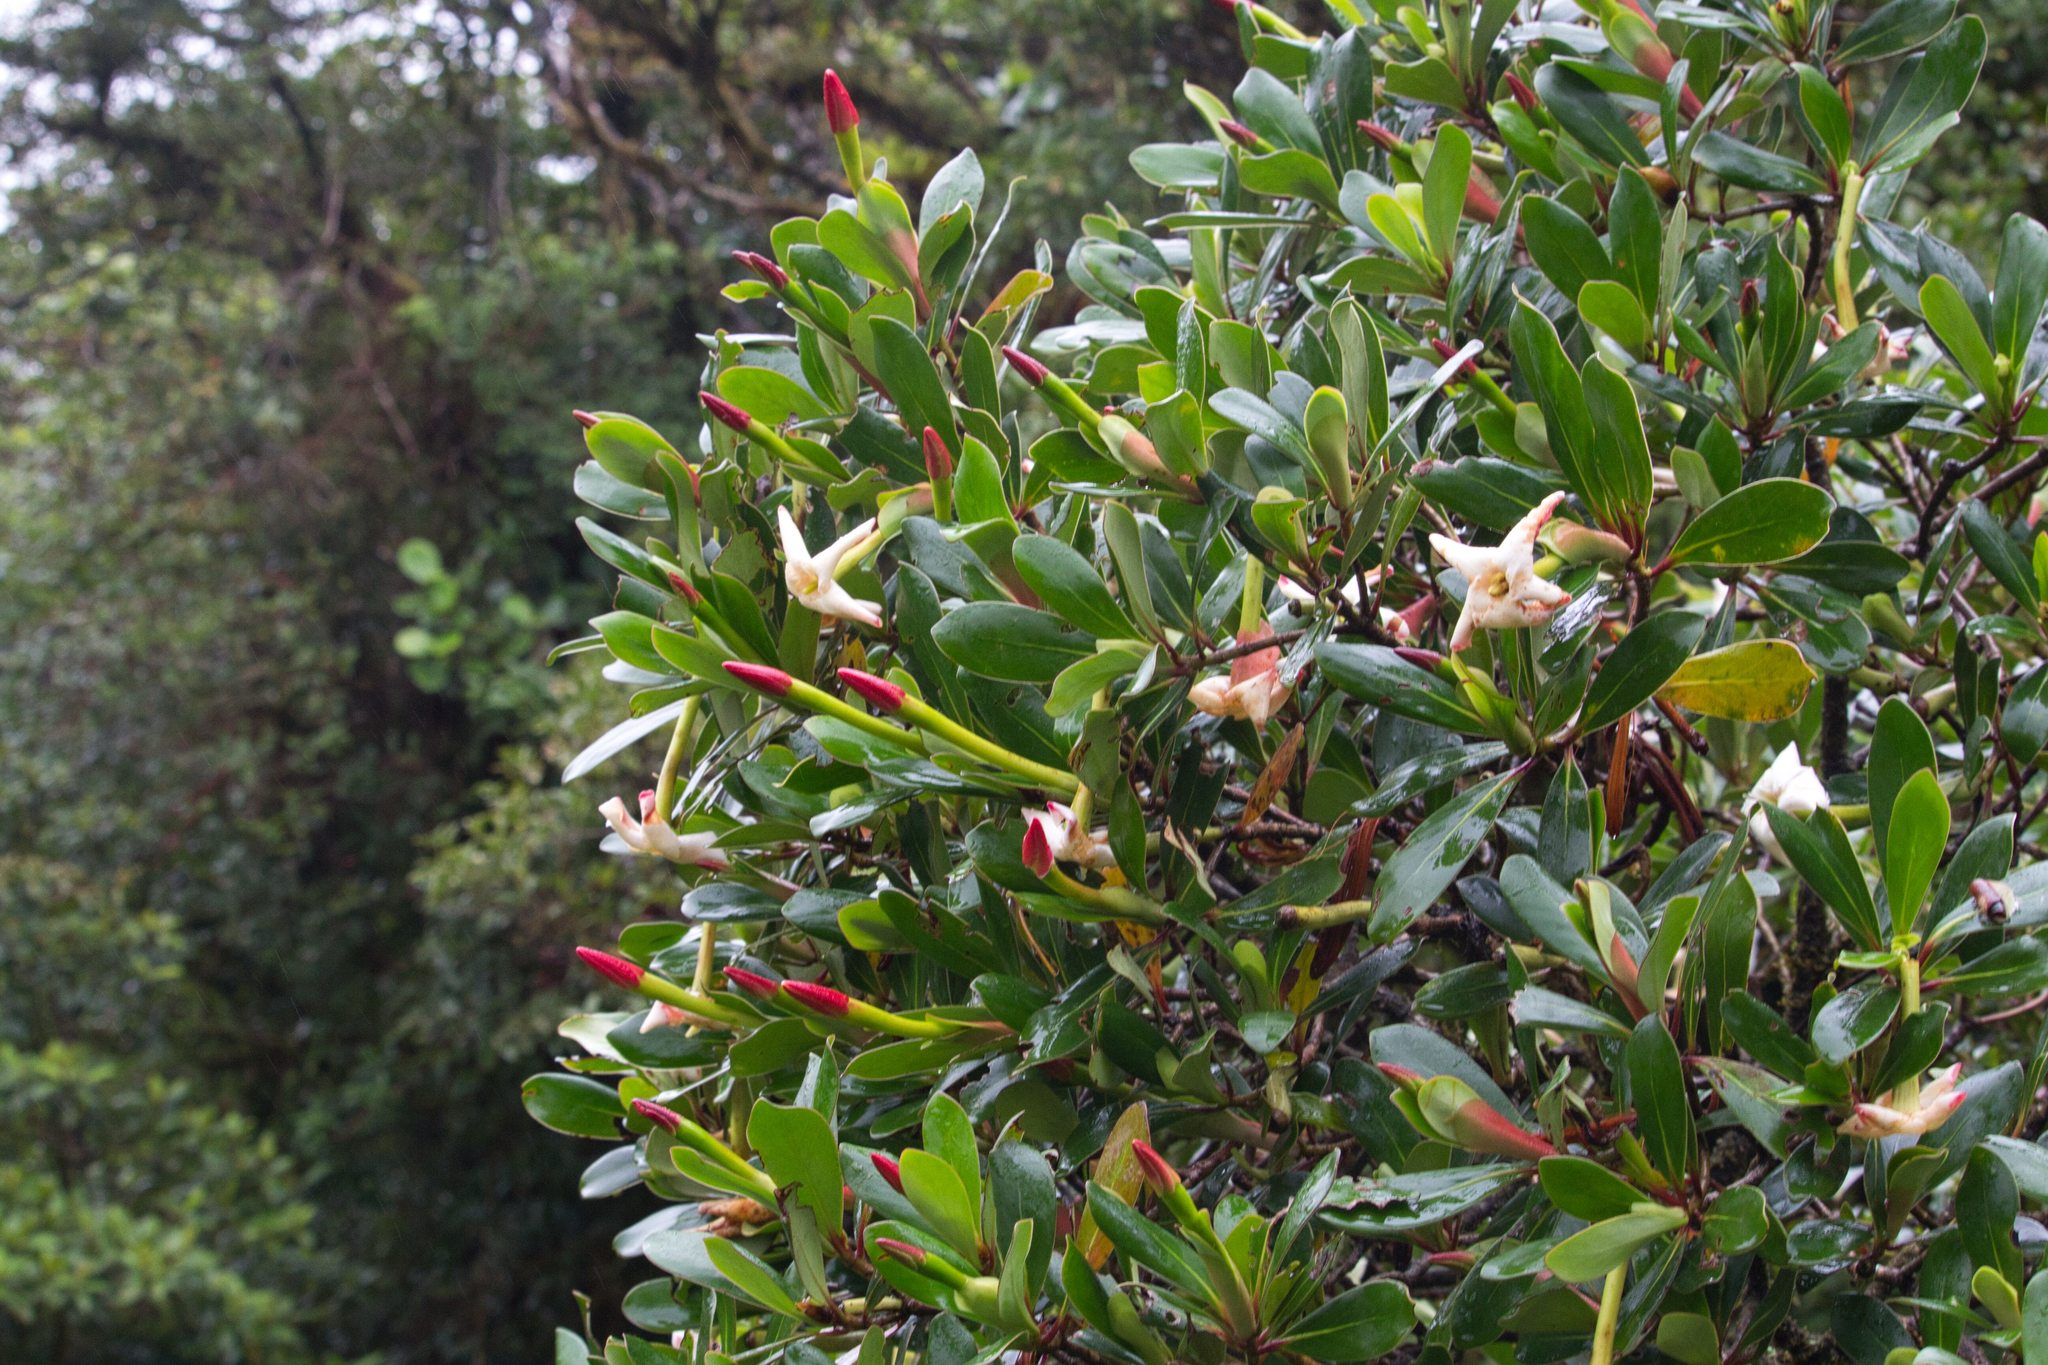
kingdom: Plantae
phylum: Tracheophyta
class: Magnoliopsida
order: Gentianales
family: Rubiaceae
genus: Cosmibuena
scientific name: Cosmibuena valerii
